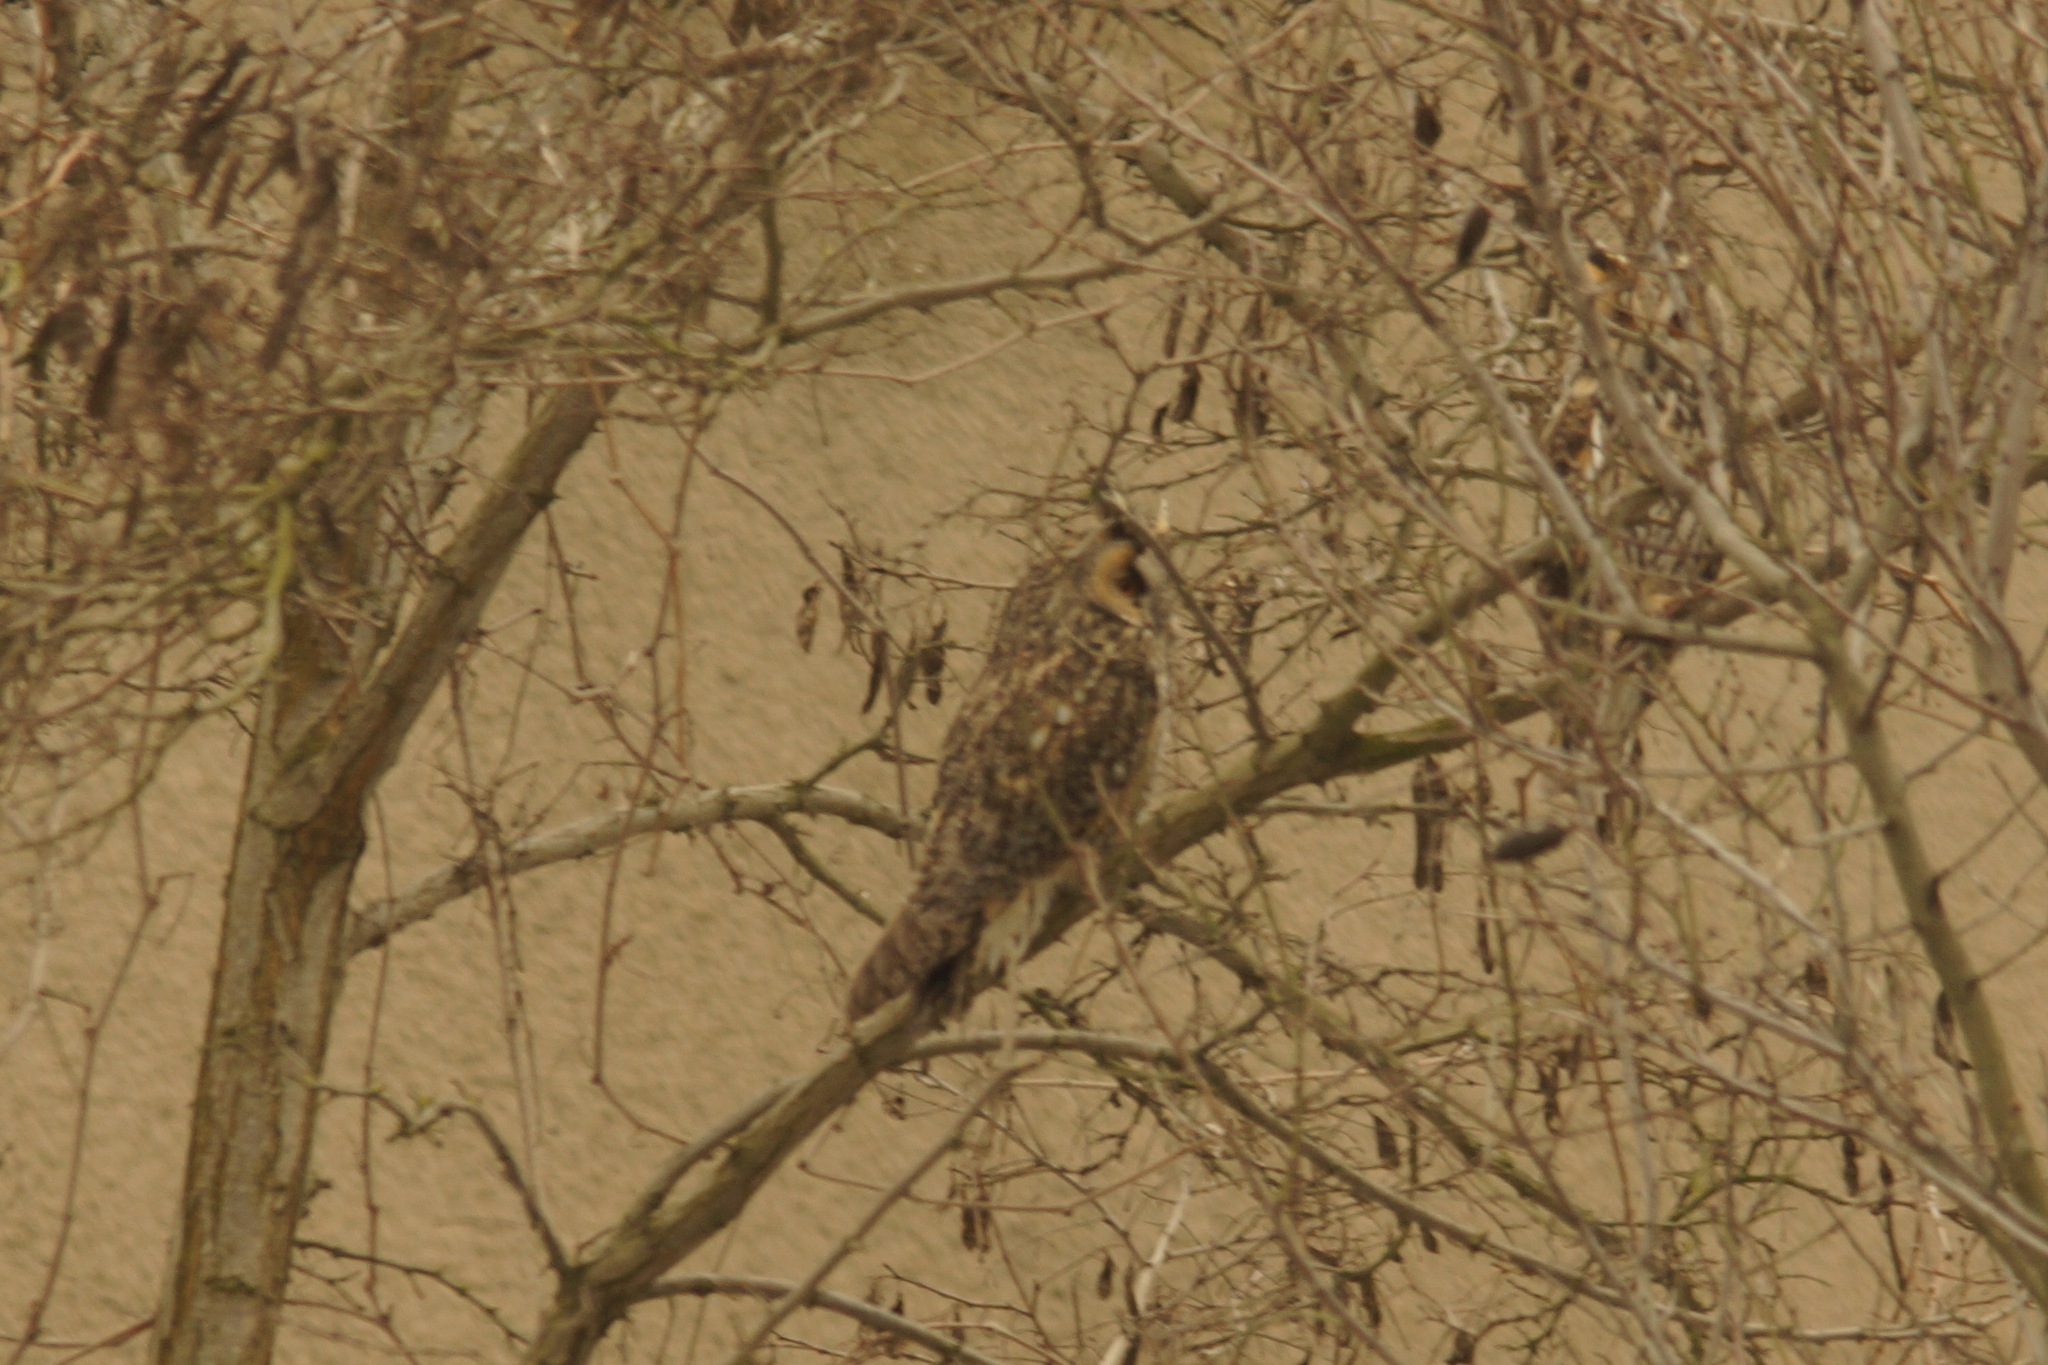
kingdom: Animalia
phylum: Chordata
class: Aves
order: Strigiformes
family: Strigidae
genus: Asio
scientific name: Asio otus
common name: Long-eared owl
